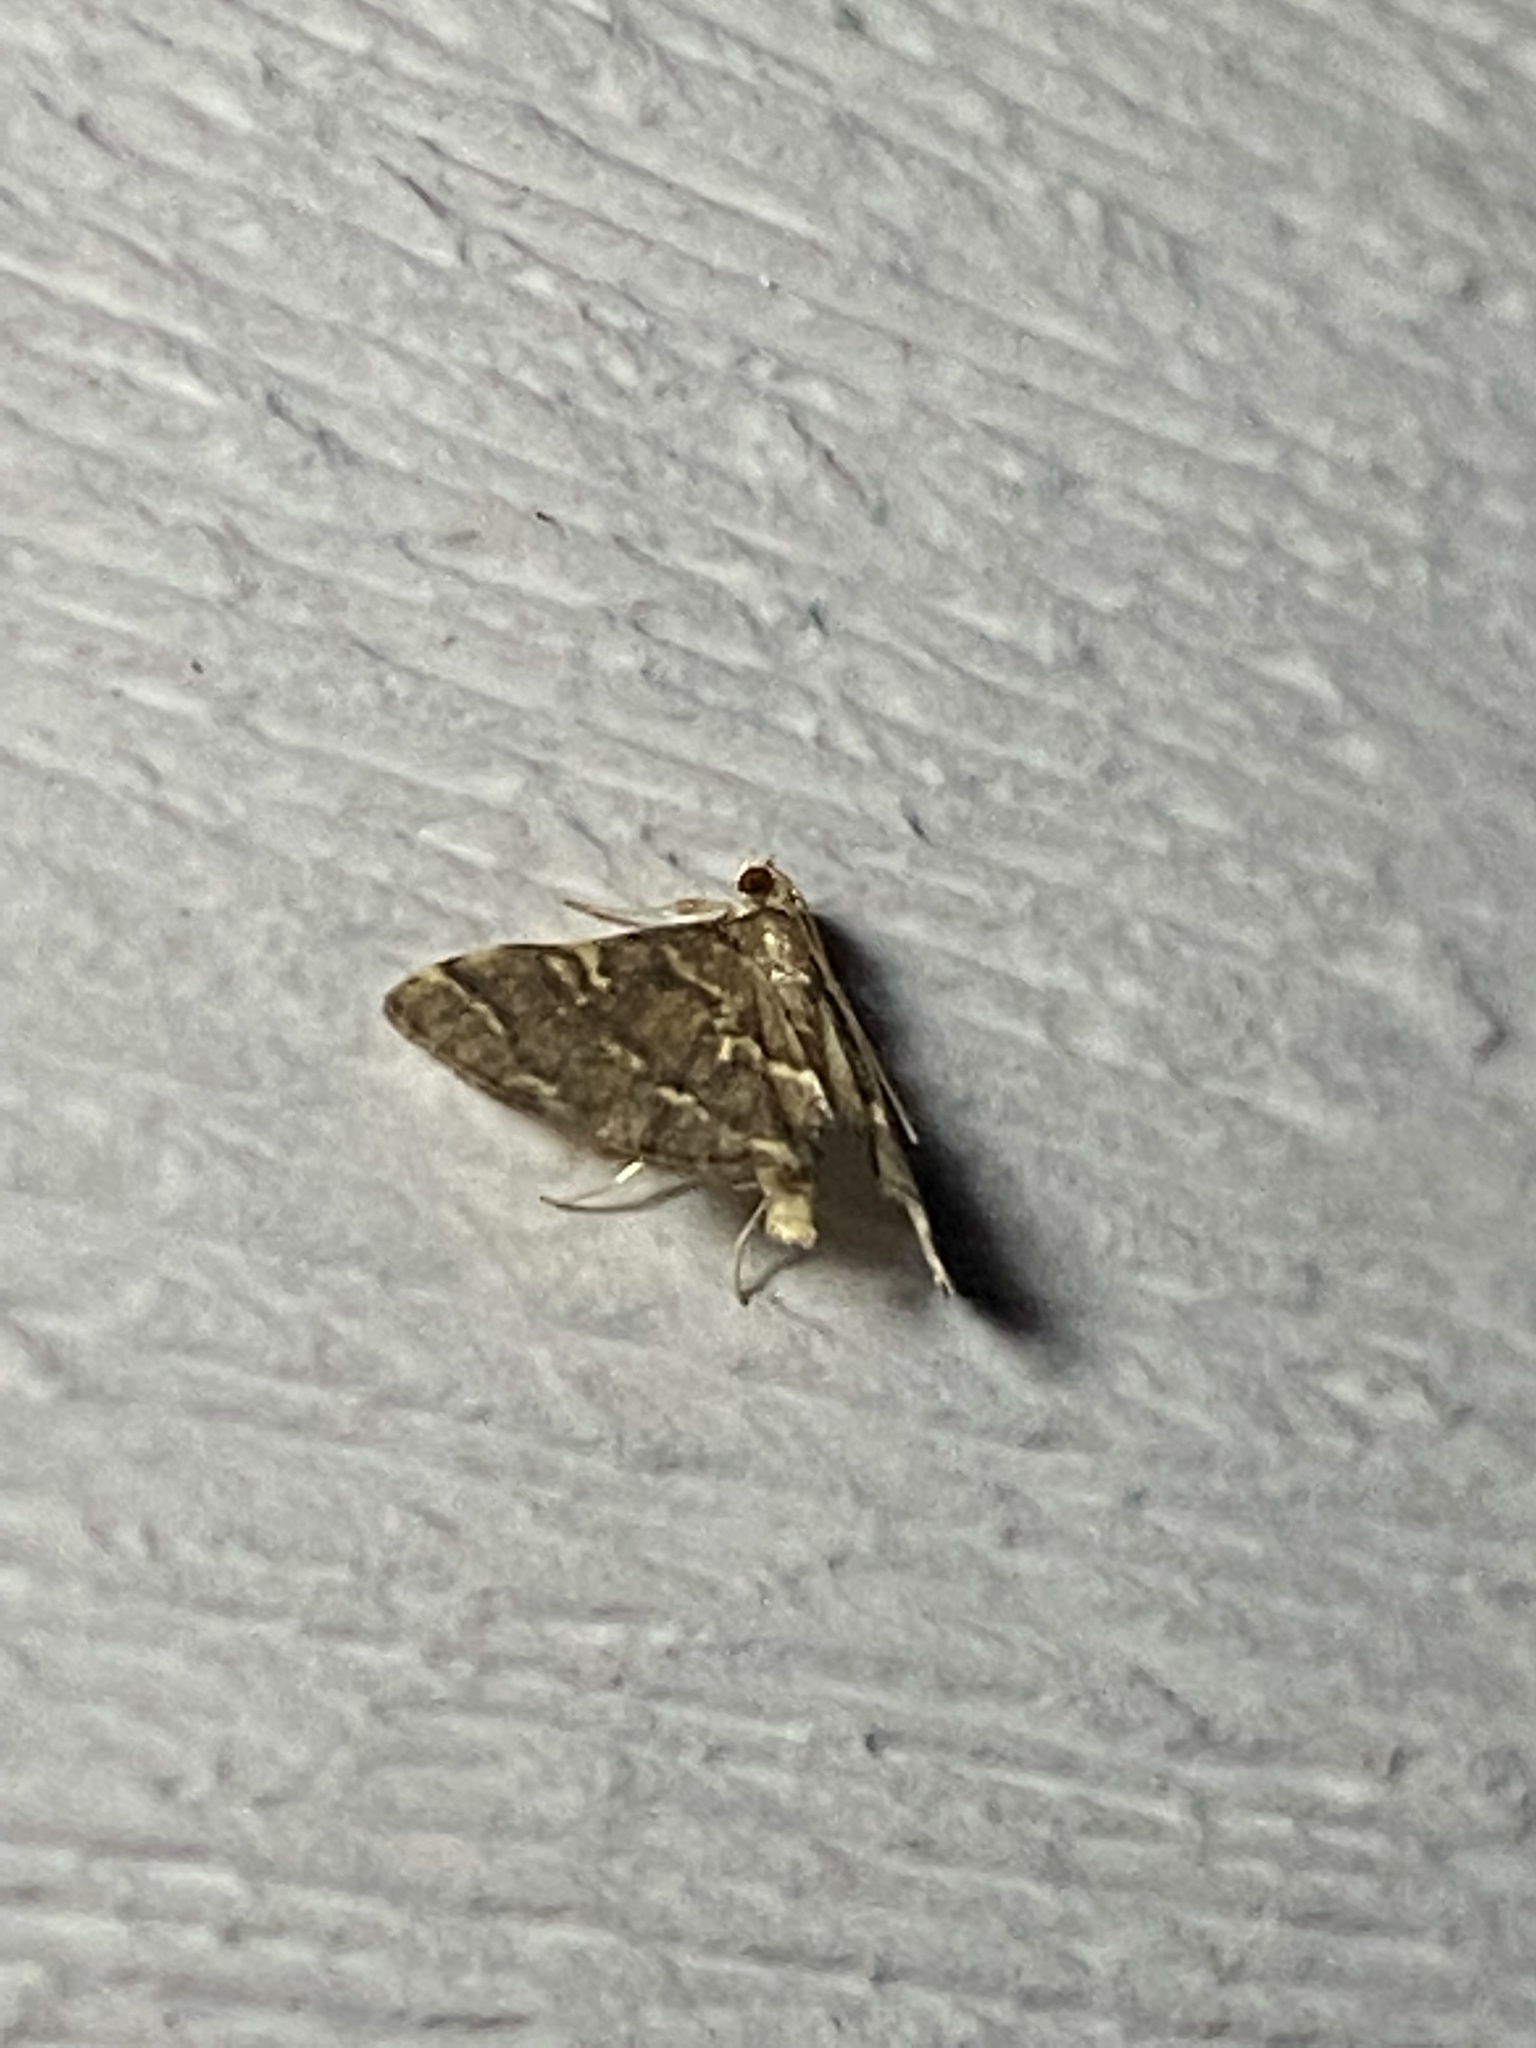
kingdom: Animalia
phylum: Arthropoda
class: Insecta
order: Lepidoptera
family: Crambidae
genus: Anageshna
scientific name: Anageshna primordialis
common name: Yellow-spotted webworm moth
